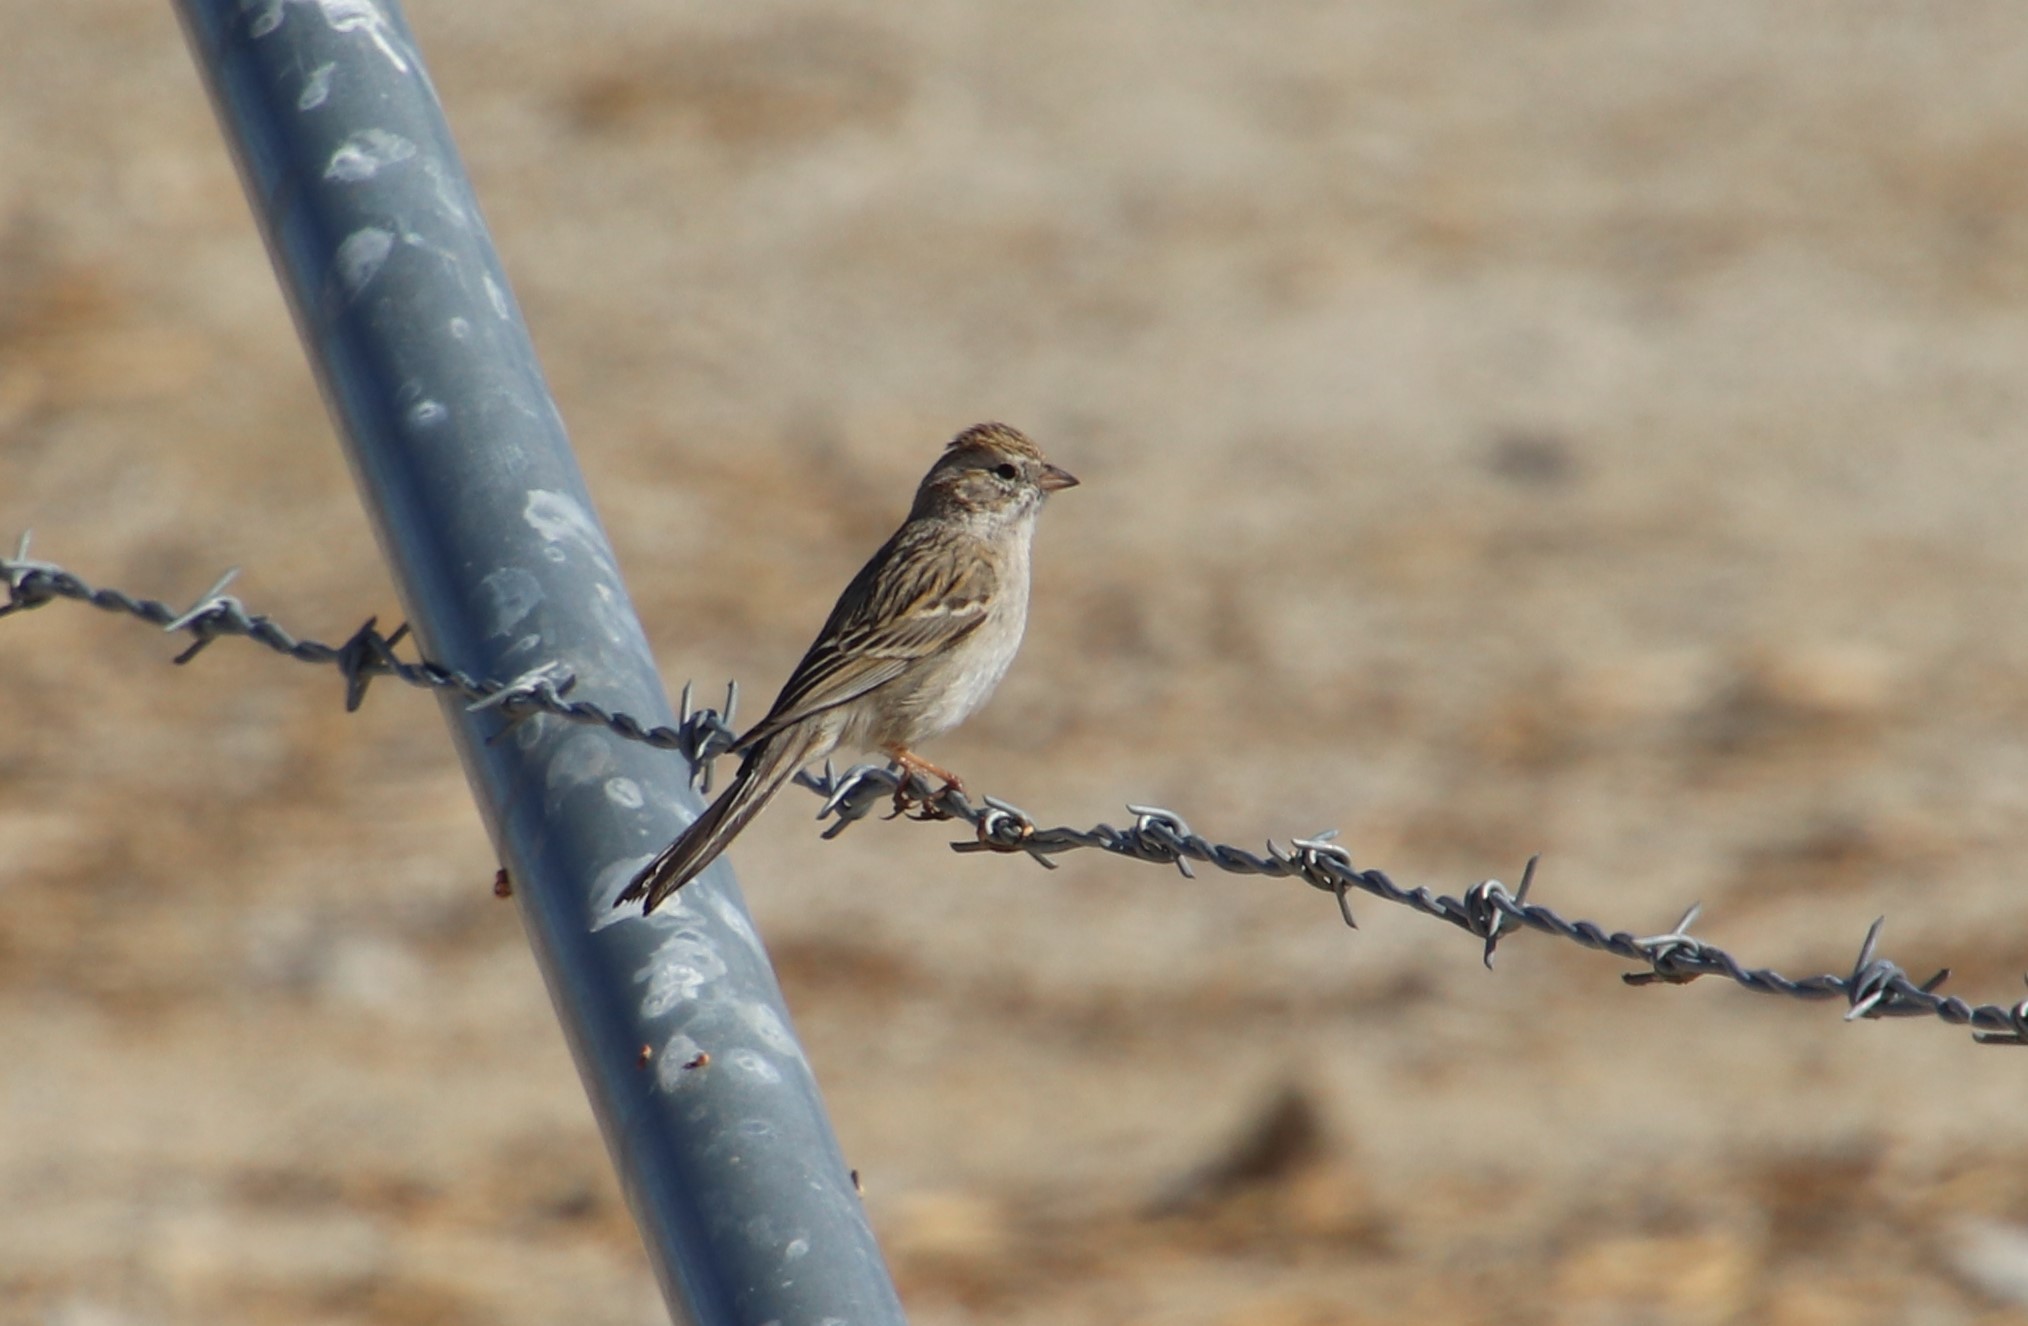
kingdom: Animalia
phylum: Chordata
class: Aves
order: Passeriformes
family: Passerellidae
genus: Spizella
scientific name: Spizella breweri
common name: Brewer's sparrow
